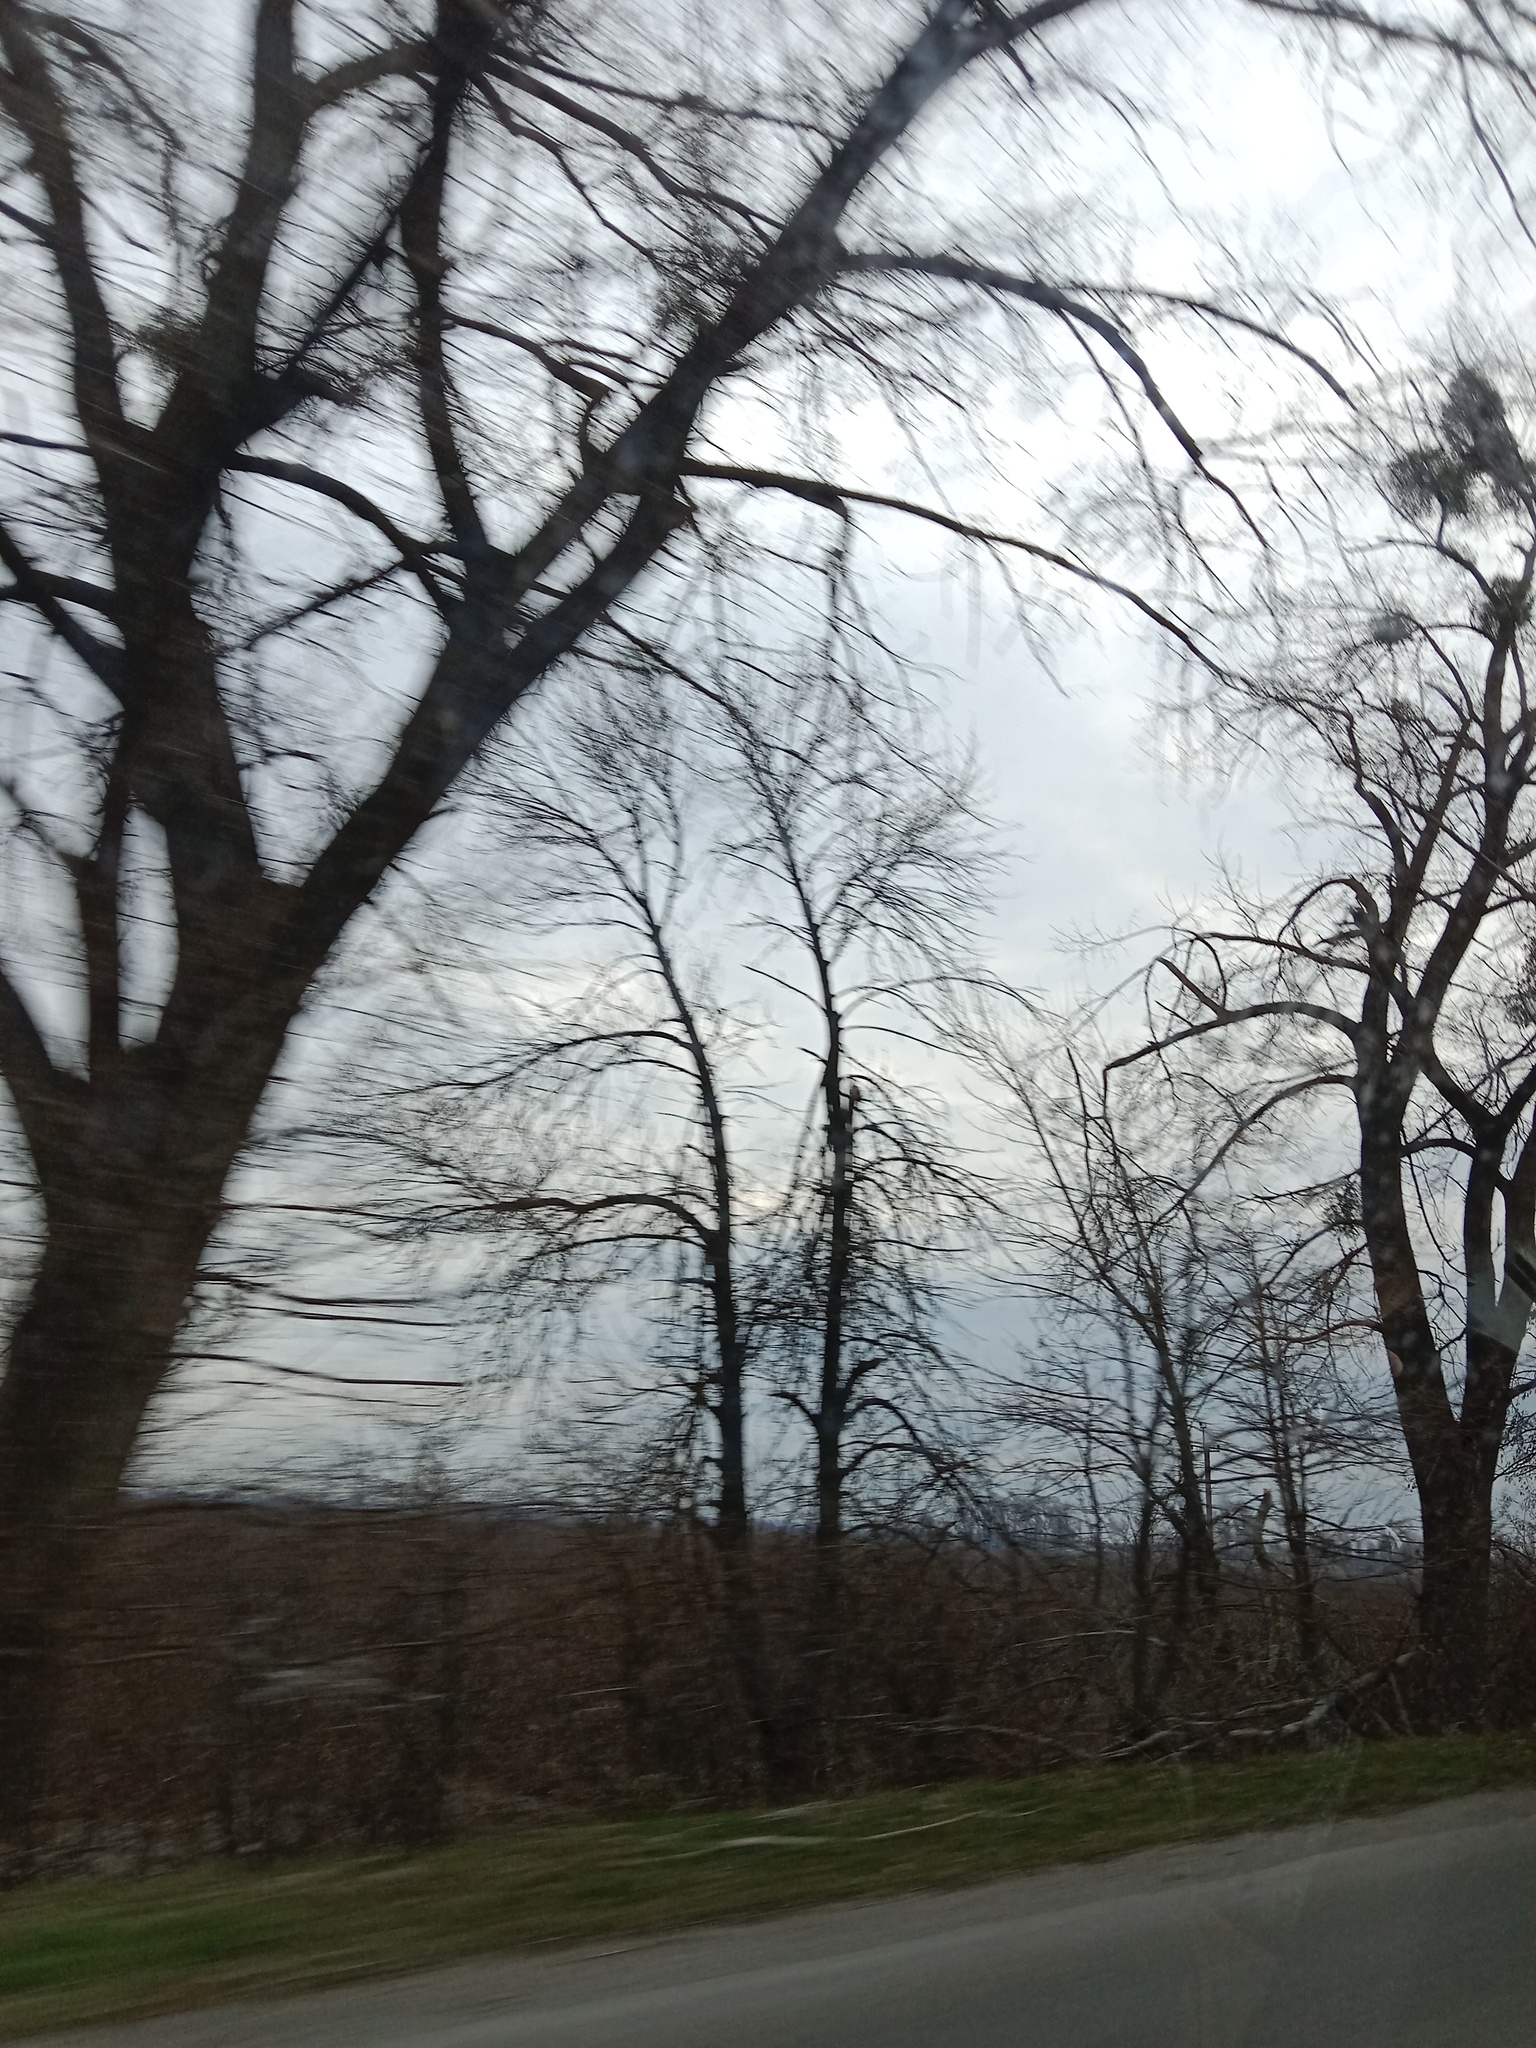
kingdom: Plantae
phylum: Tracheophyta
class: Magnoliopsida
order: Santalales
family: Viscaceae
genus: Viscum
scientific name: Viscum album
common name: Mistletoe
